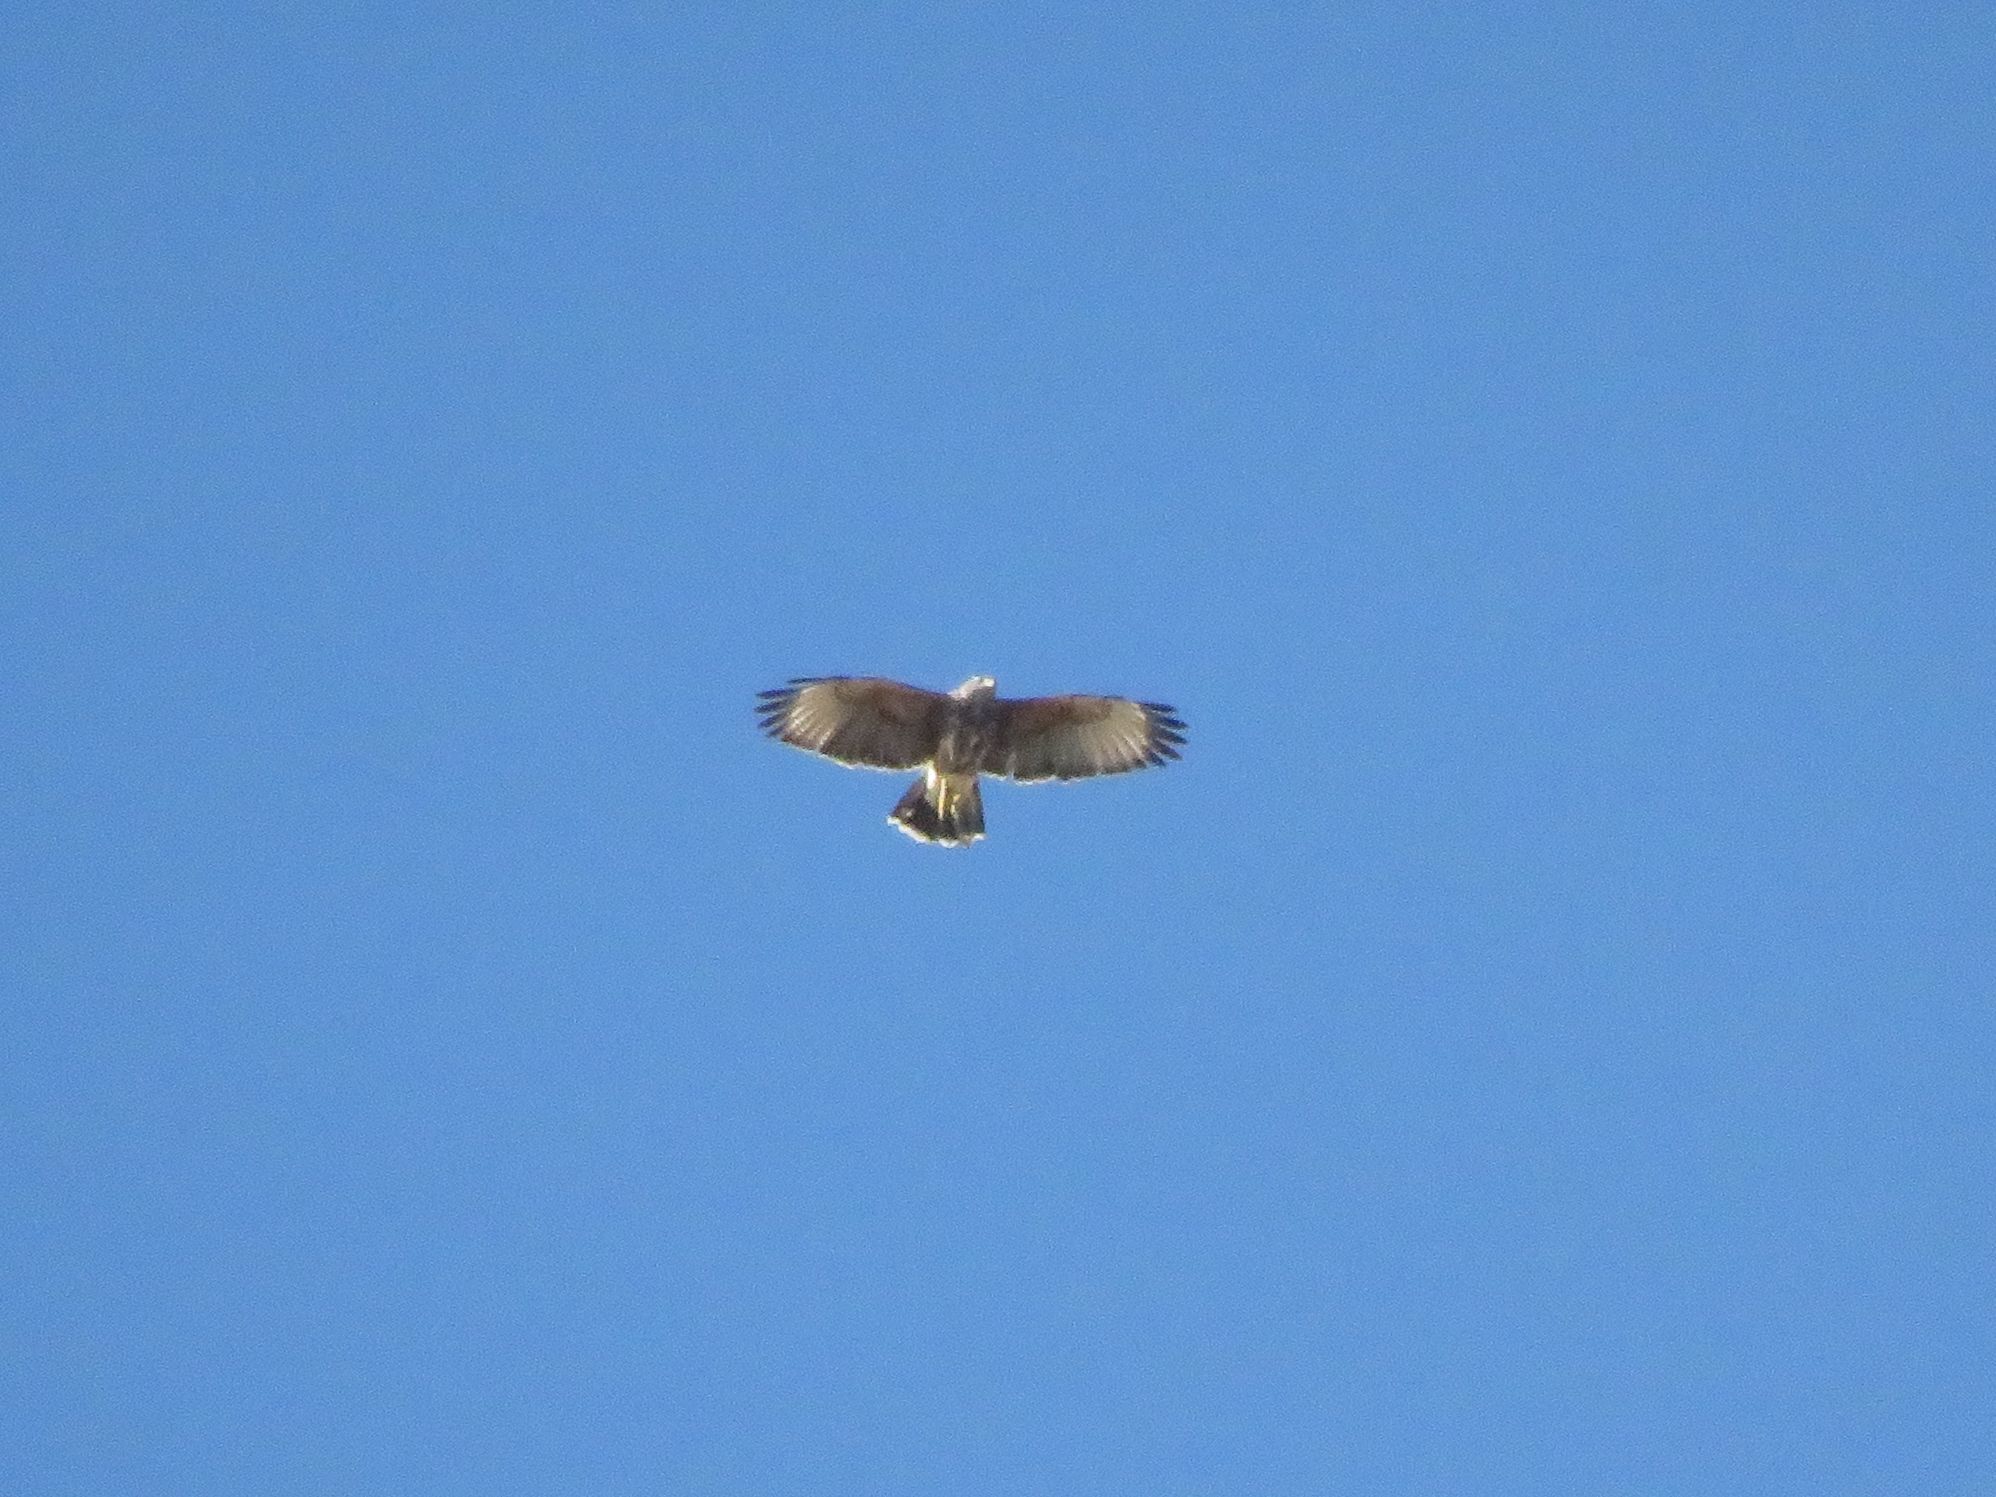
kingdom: Animalia
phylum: Chordata
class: Aves
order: Accipitriformes
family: Accipitridae
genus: Parabuteo
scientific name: Parabuteo unicinctus
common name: Harris's hawk
